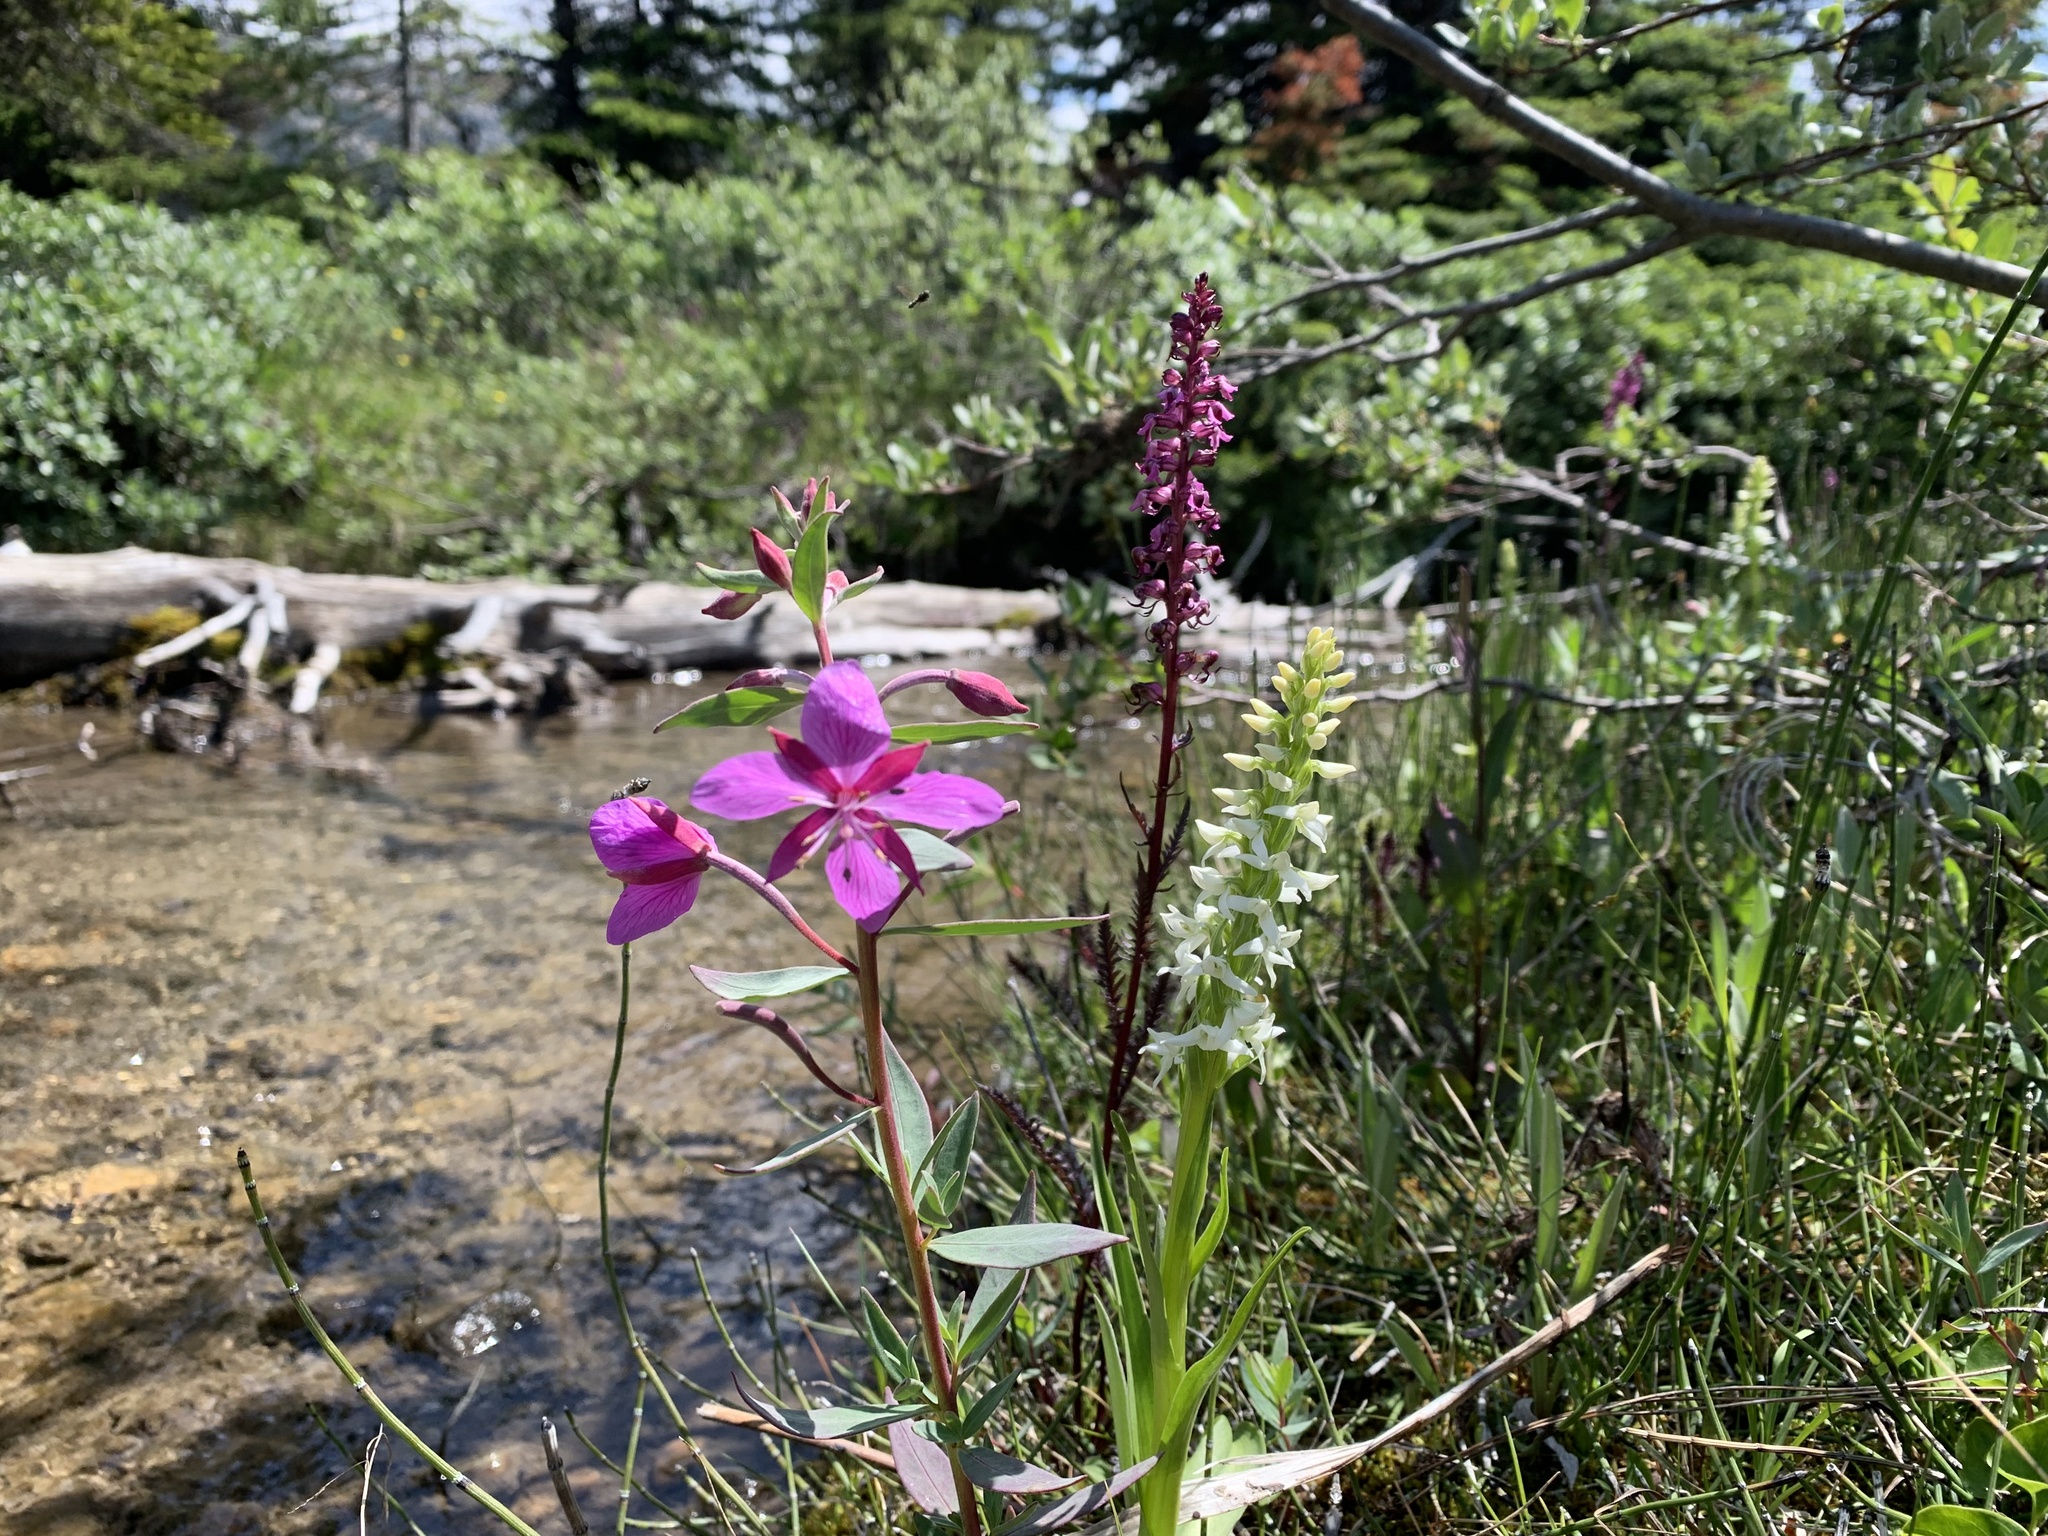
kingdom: Plantae
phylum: Tracheophyta
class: Magnoliopsida
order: Lamiales
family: Orobanchaceae
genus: Pedicularis
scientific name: Pedicularis groenlandica
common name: Elephant's-head
